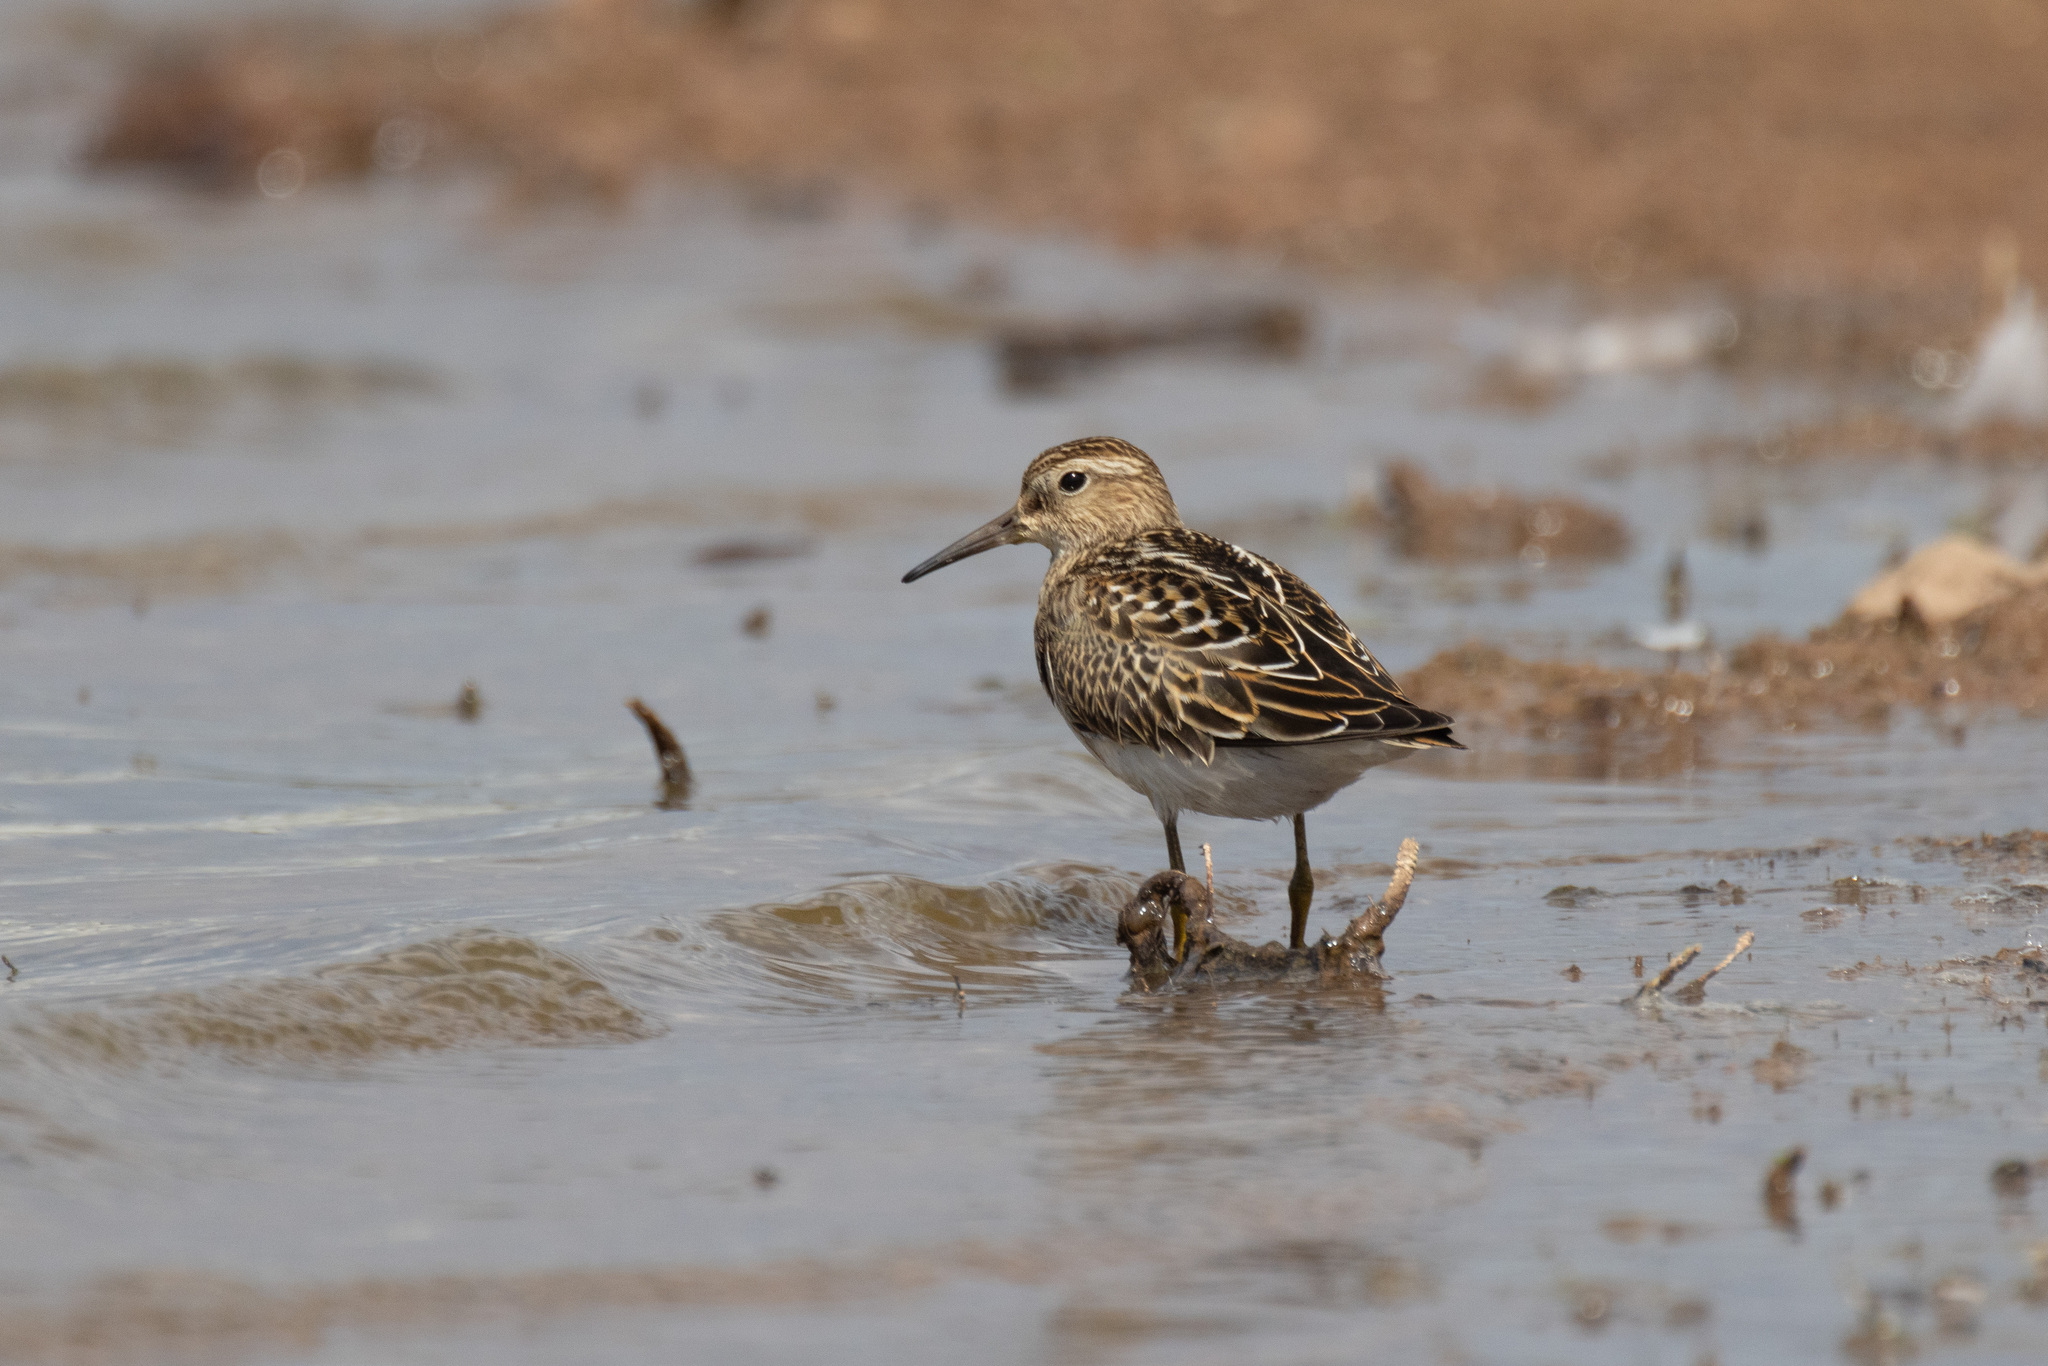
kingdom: Animalia
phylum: Chordata
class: Aves
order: Charadriiformes
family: Scolopacidae
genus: Calidris
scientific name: Calidris melanotos
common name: Pectoral sandpiper
